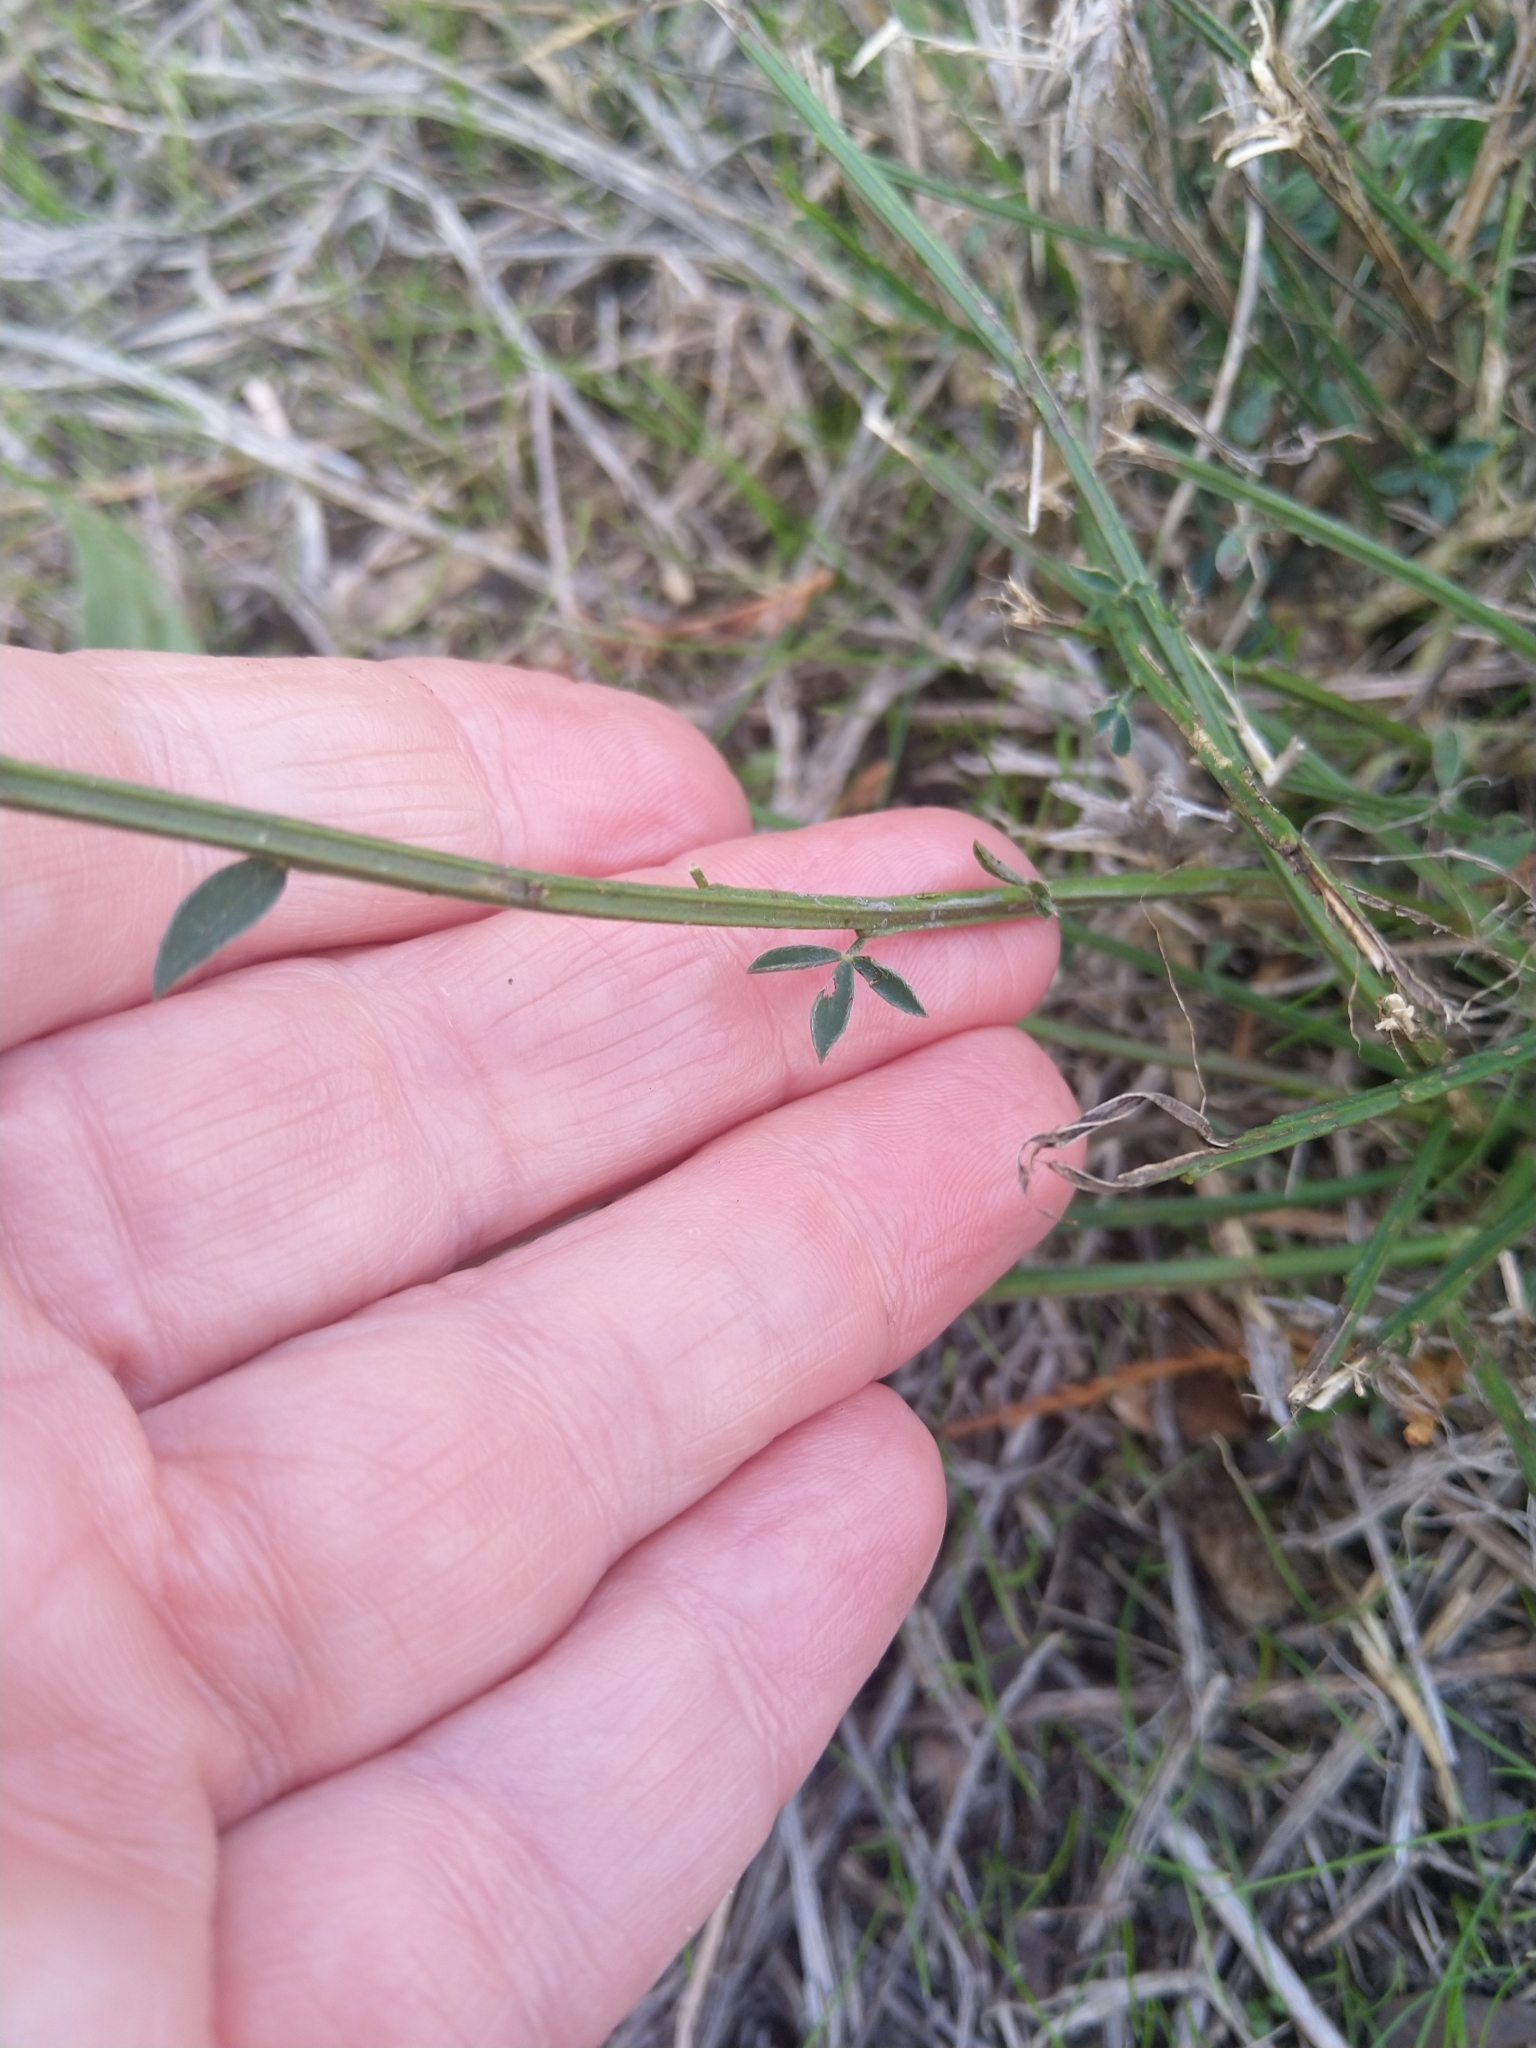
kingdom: Plantae
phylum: Tracheophyta
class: Magnoliopsida
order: Fabales
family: Fabaceae
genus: Cytisus
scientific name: Cytisus scoparius
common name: Scotch broom
